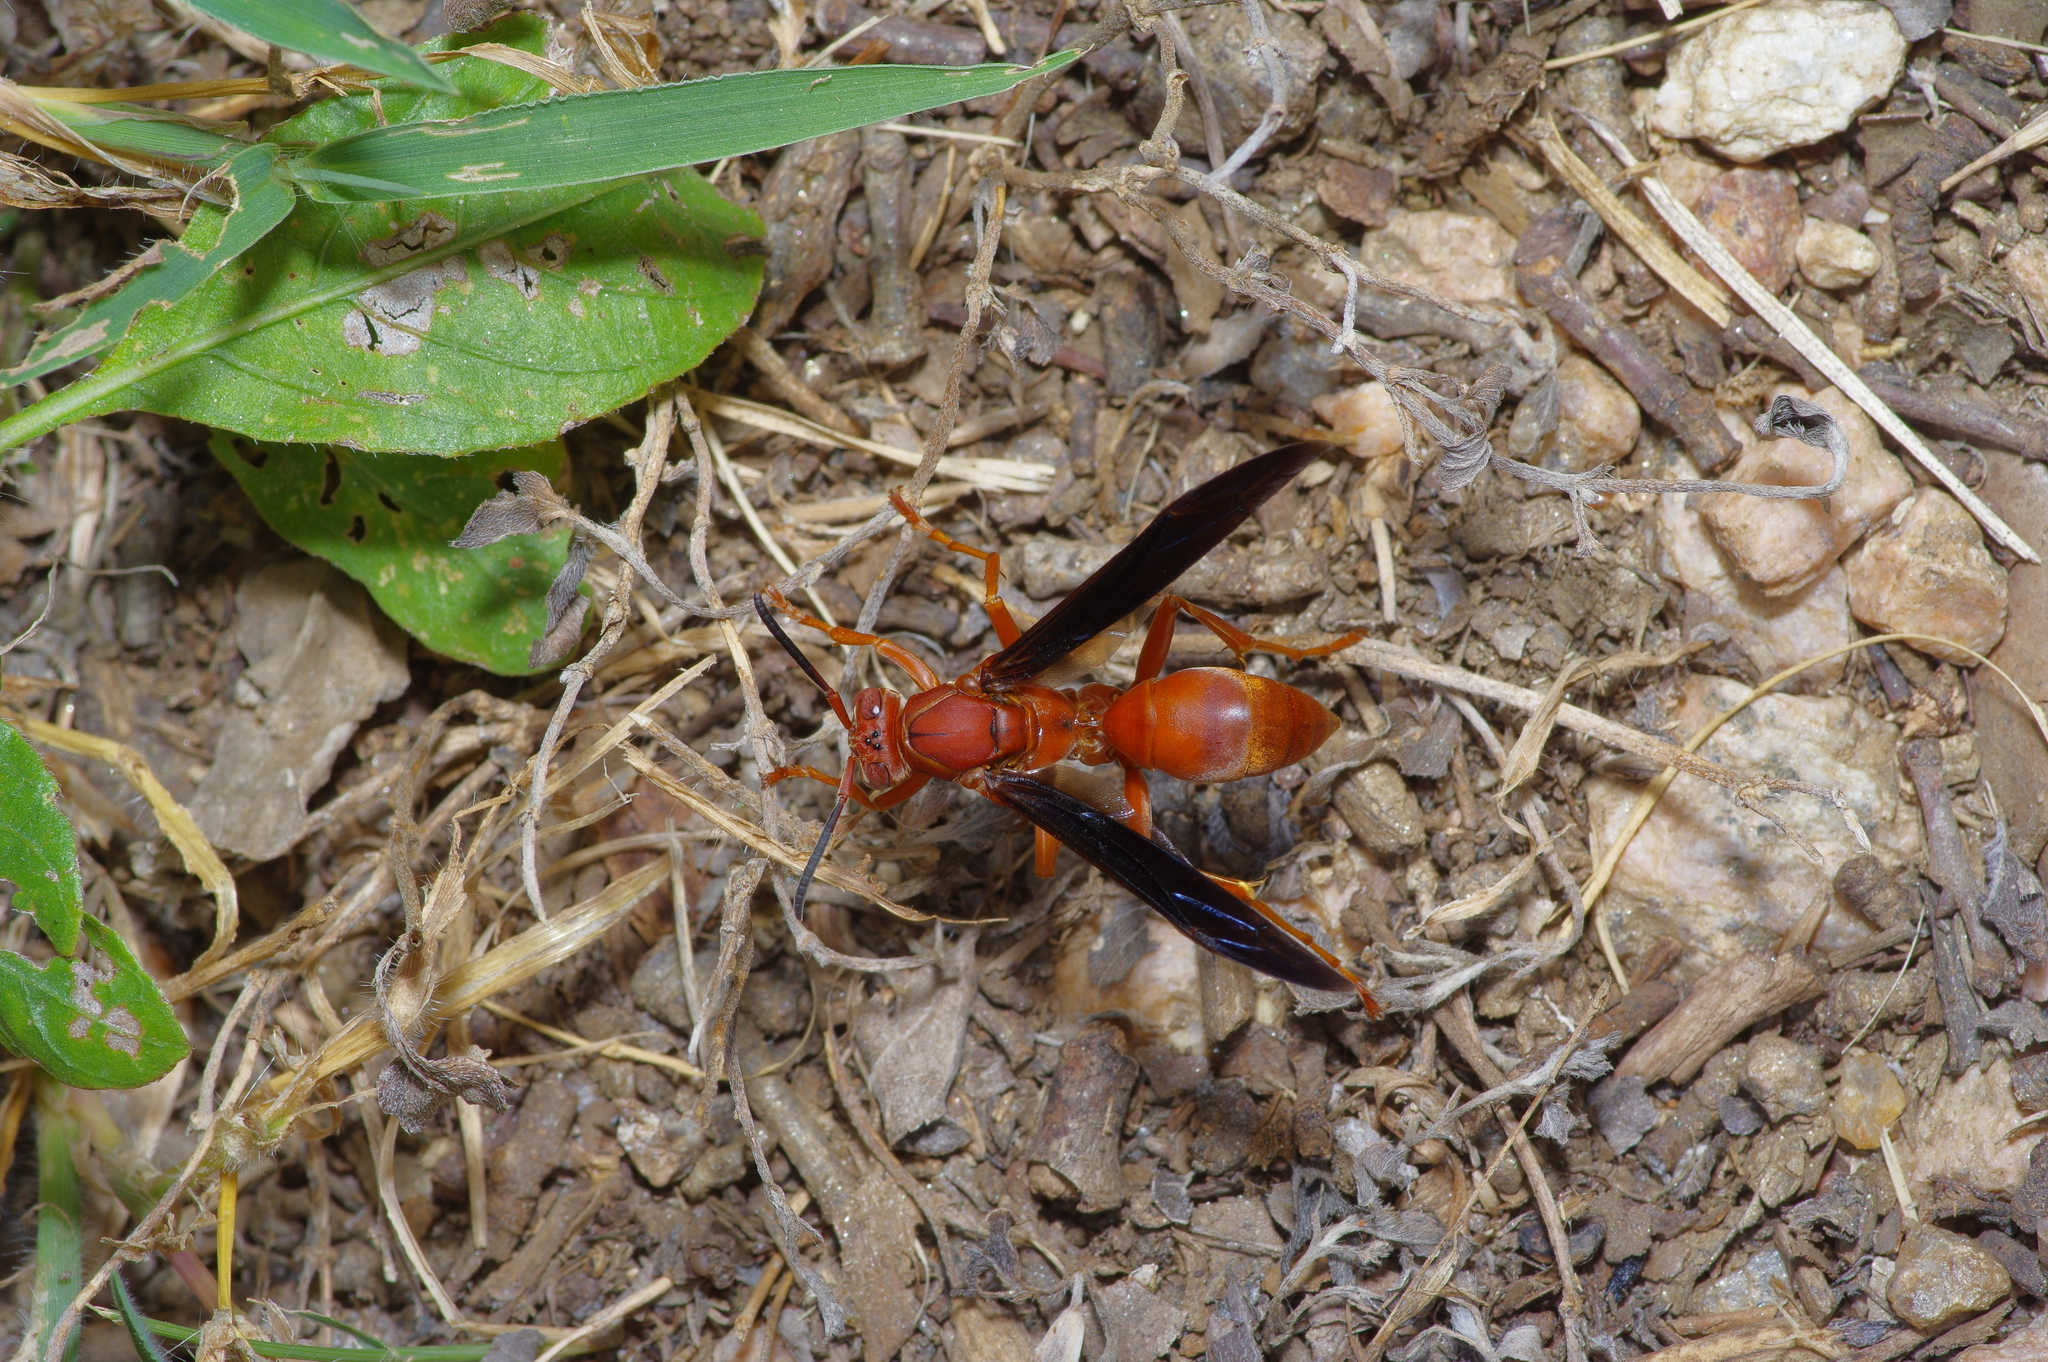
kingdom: Animalia
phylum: Arthropoda
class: Insecta
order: Hymenoptera
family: Vespidae
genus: Fuscopolistes
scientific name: Fuscopolistes
